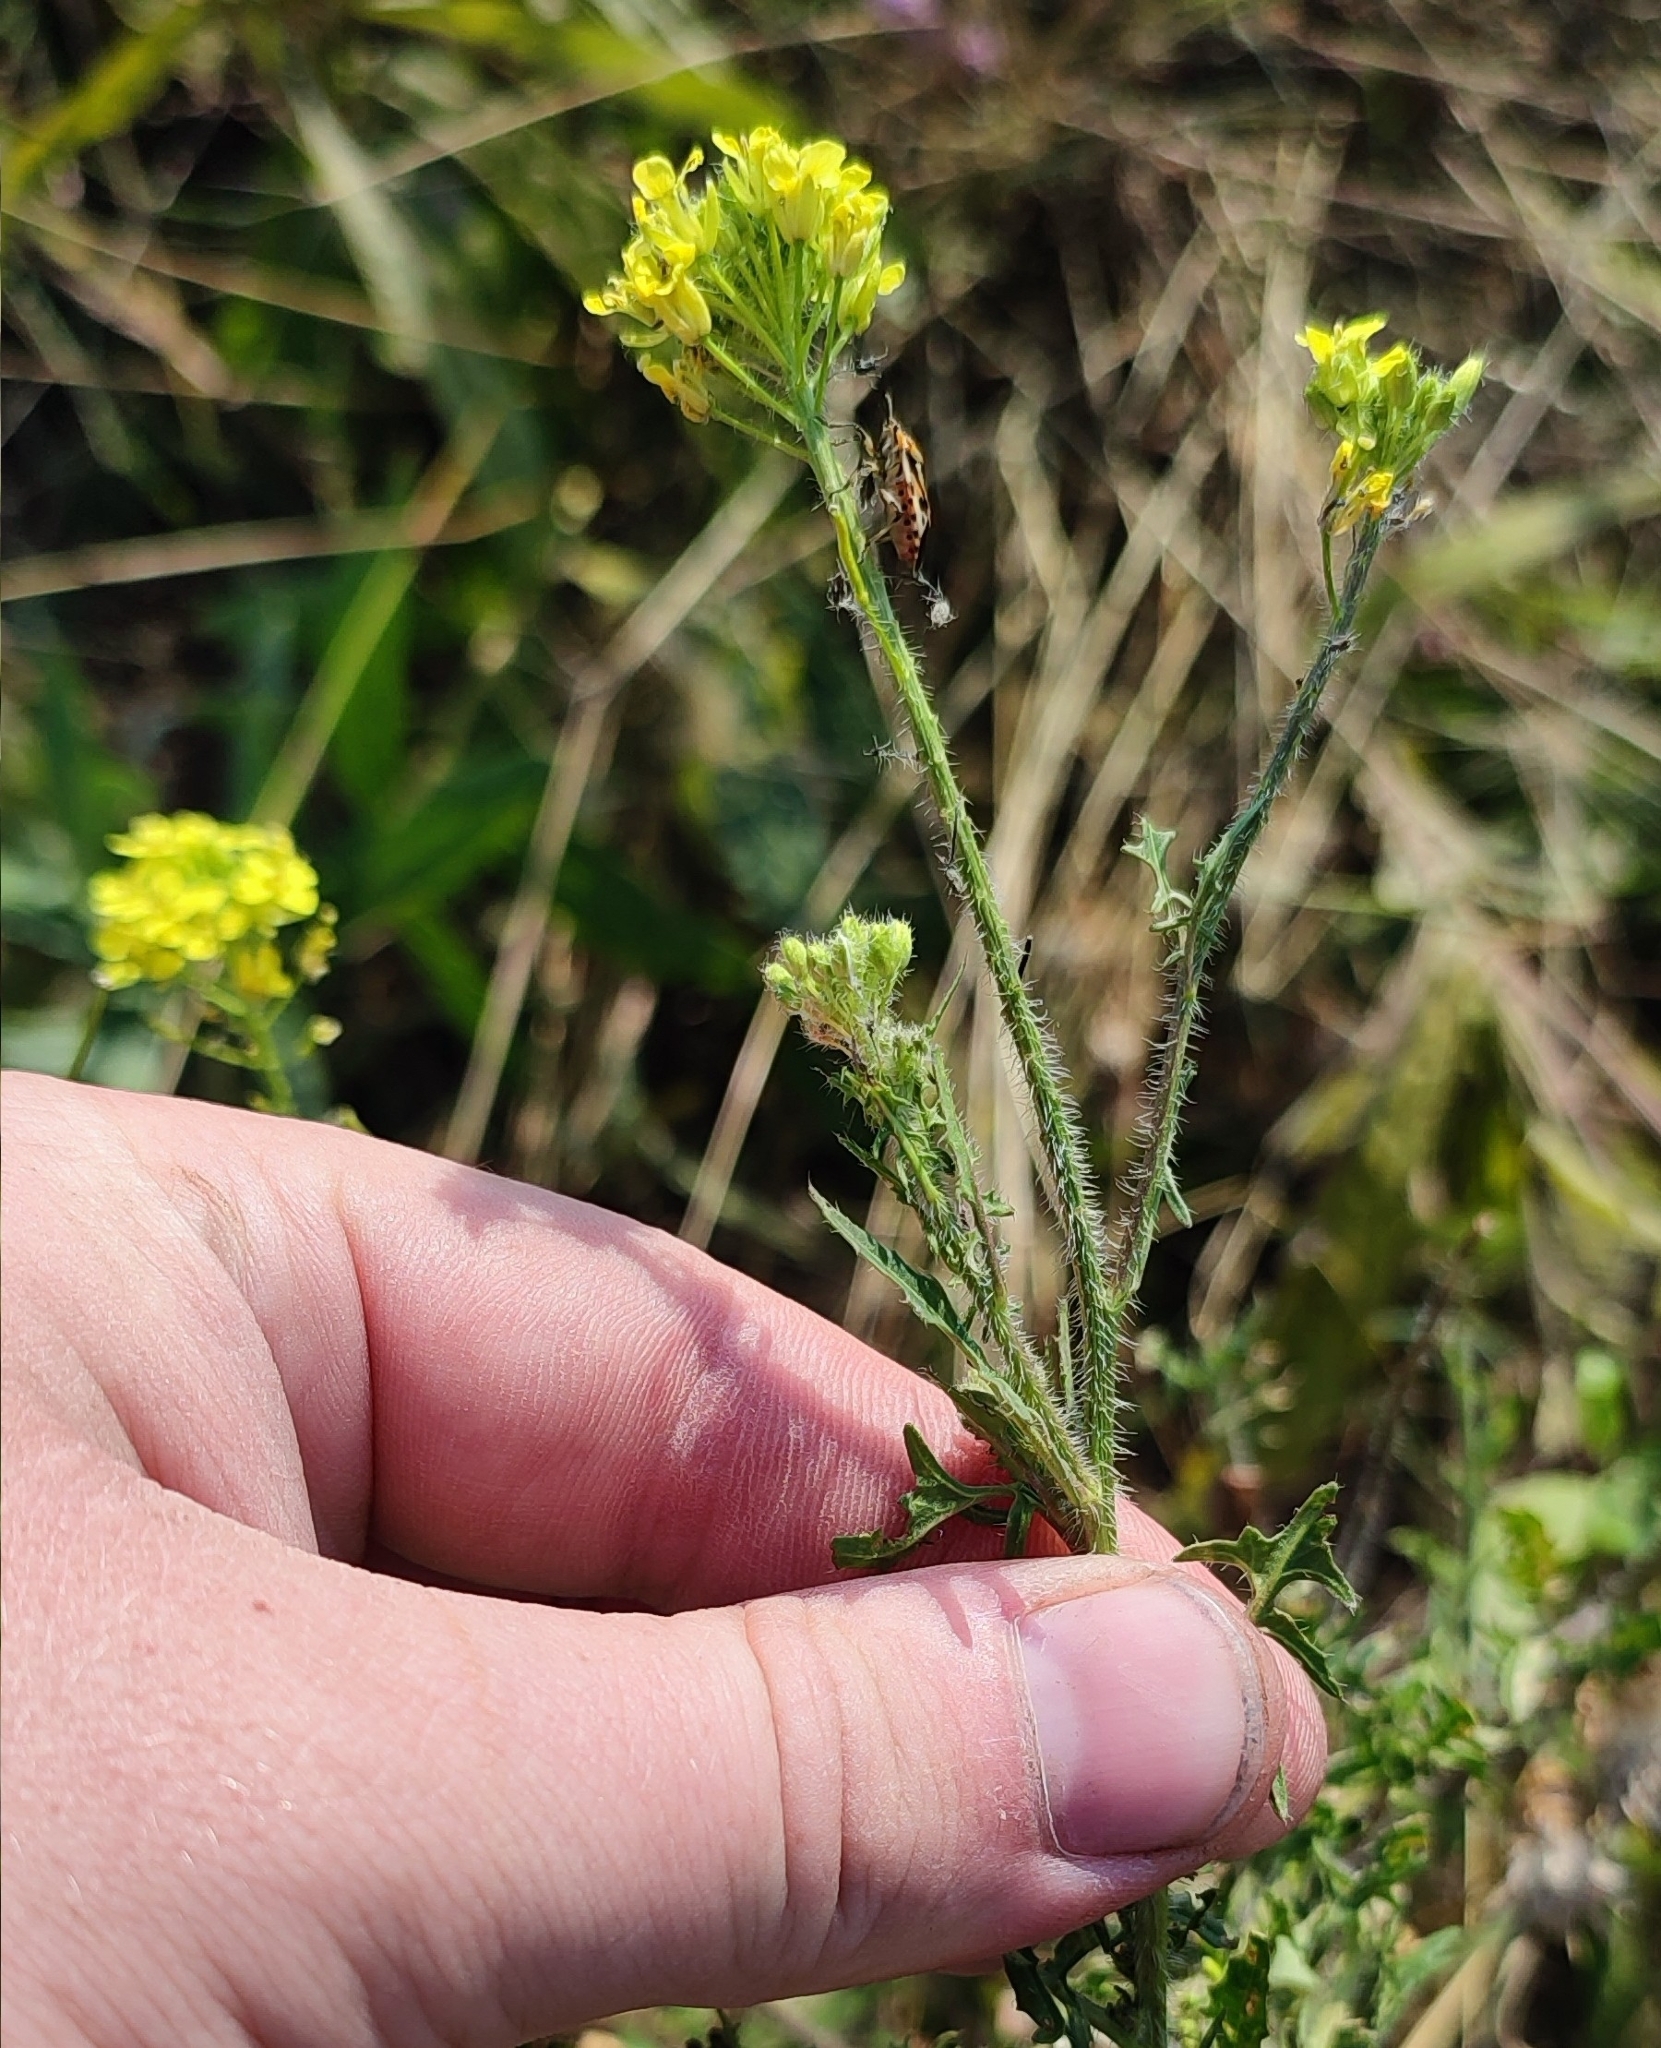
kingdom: Plantae
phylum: Tracheophyta
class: Magnoliopsida
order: Brassicales
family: Brassicaceae
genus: Sisymbrium
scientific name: Sisymbrium loeselii
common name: False london-rocket
